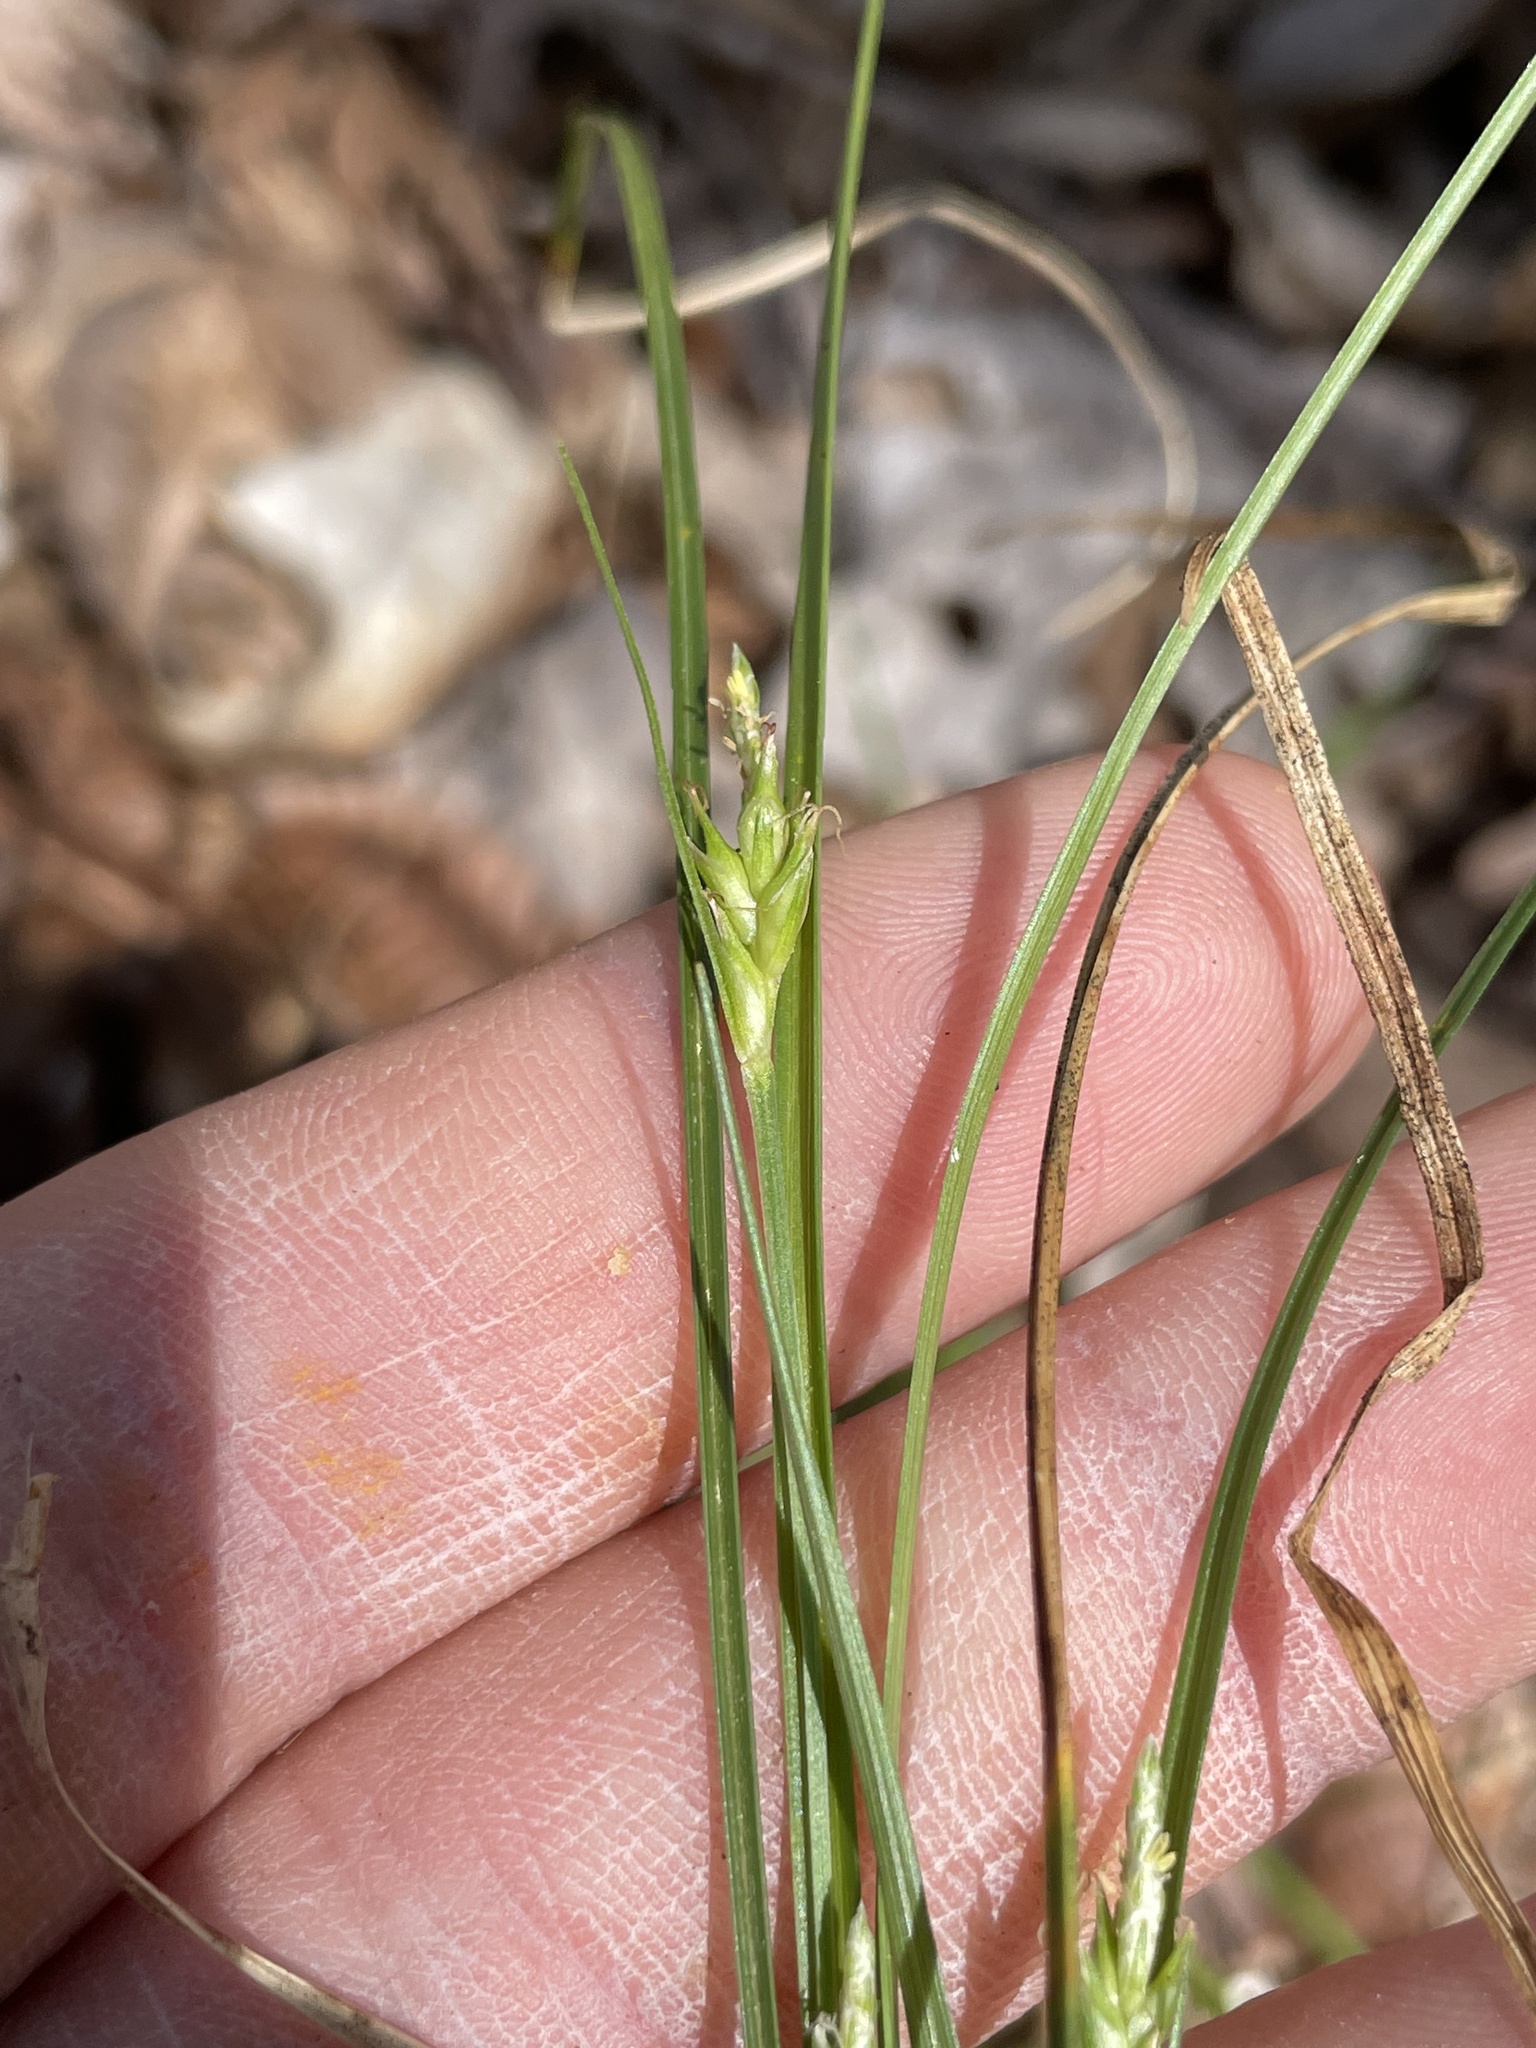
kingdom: Plantae
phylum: Tracheophyta
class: Liliopsida
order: Poales
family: Cyperaceae
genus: Carex
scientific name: Carex willdenowii
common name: Willdenow's sedge
